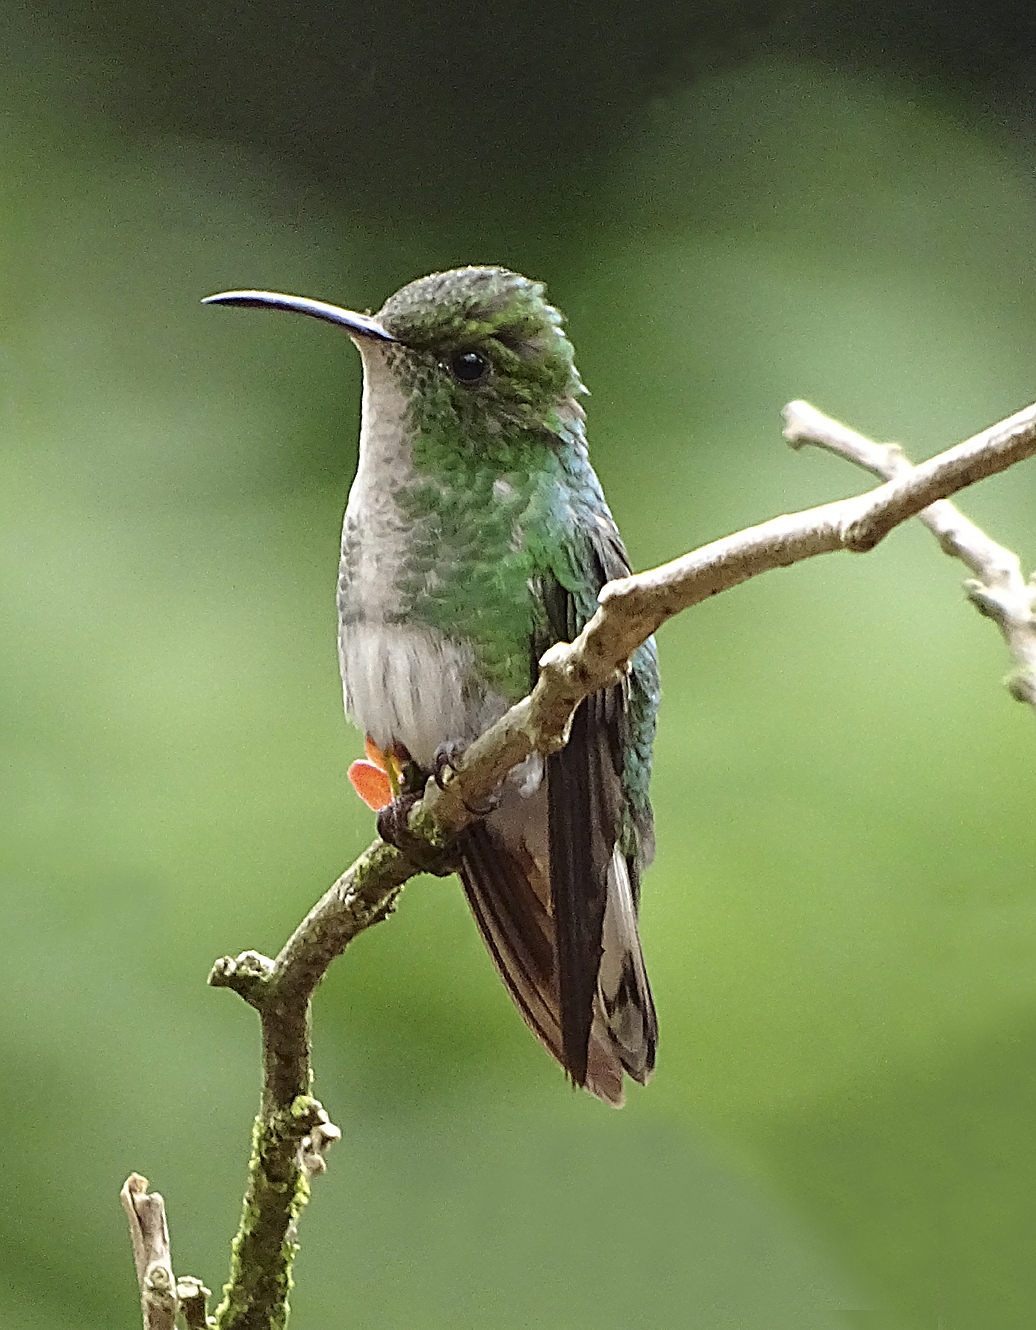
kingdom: Animalia
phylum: Chordata
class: Aves
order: Apodiformes
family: Trochilidae
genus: Microchera
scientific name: Microchera cupreiceps
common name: Coppery-headed emerald
